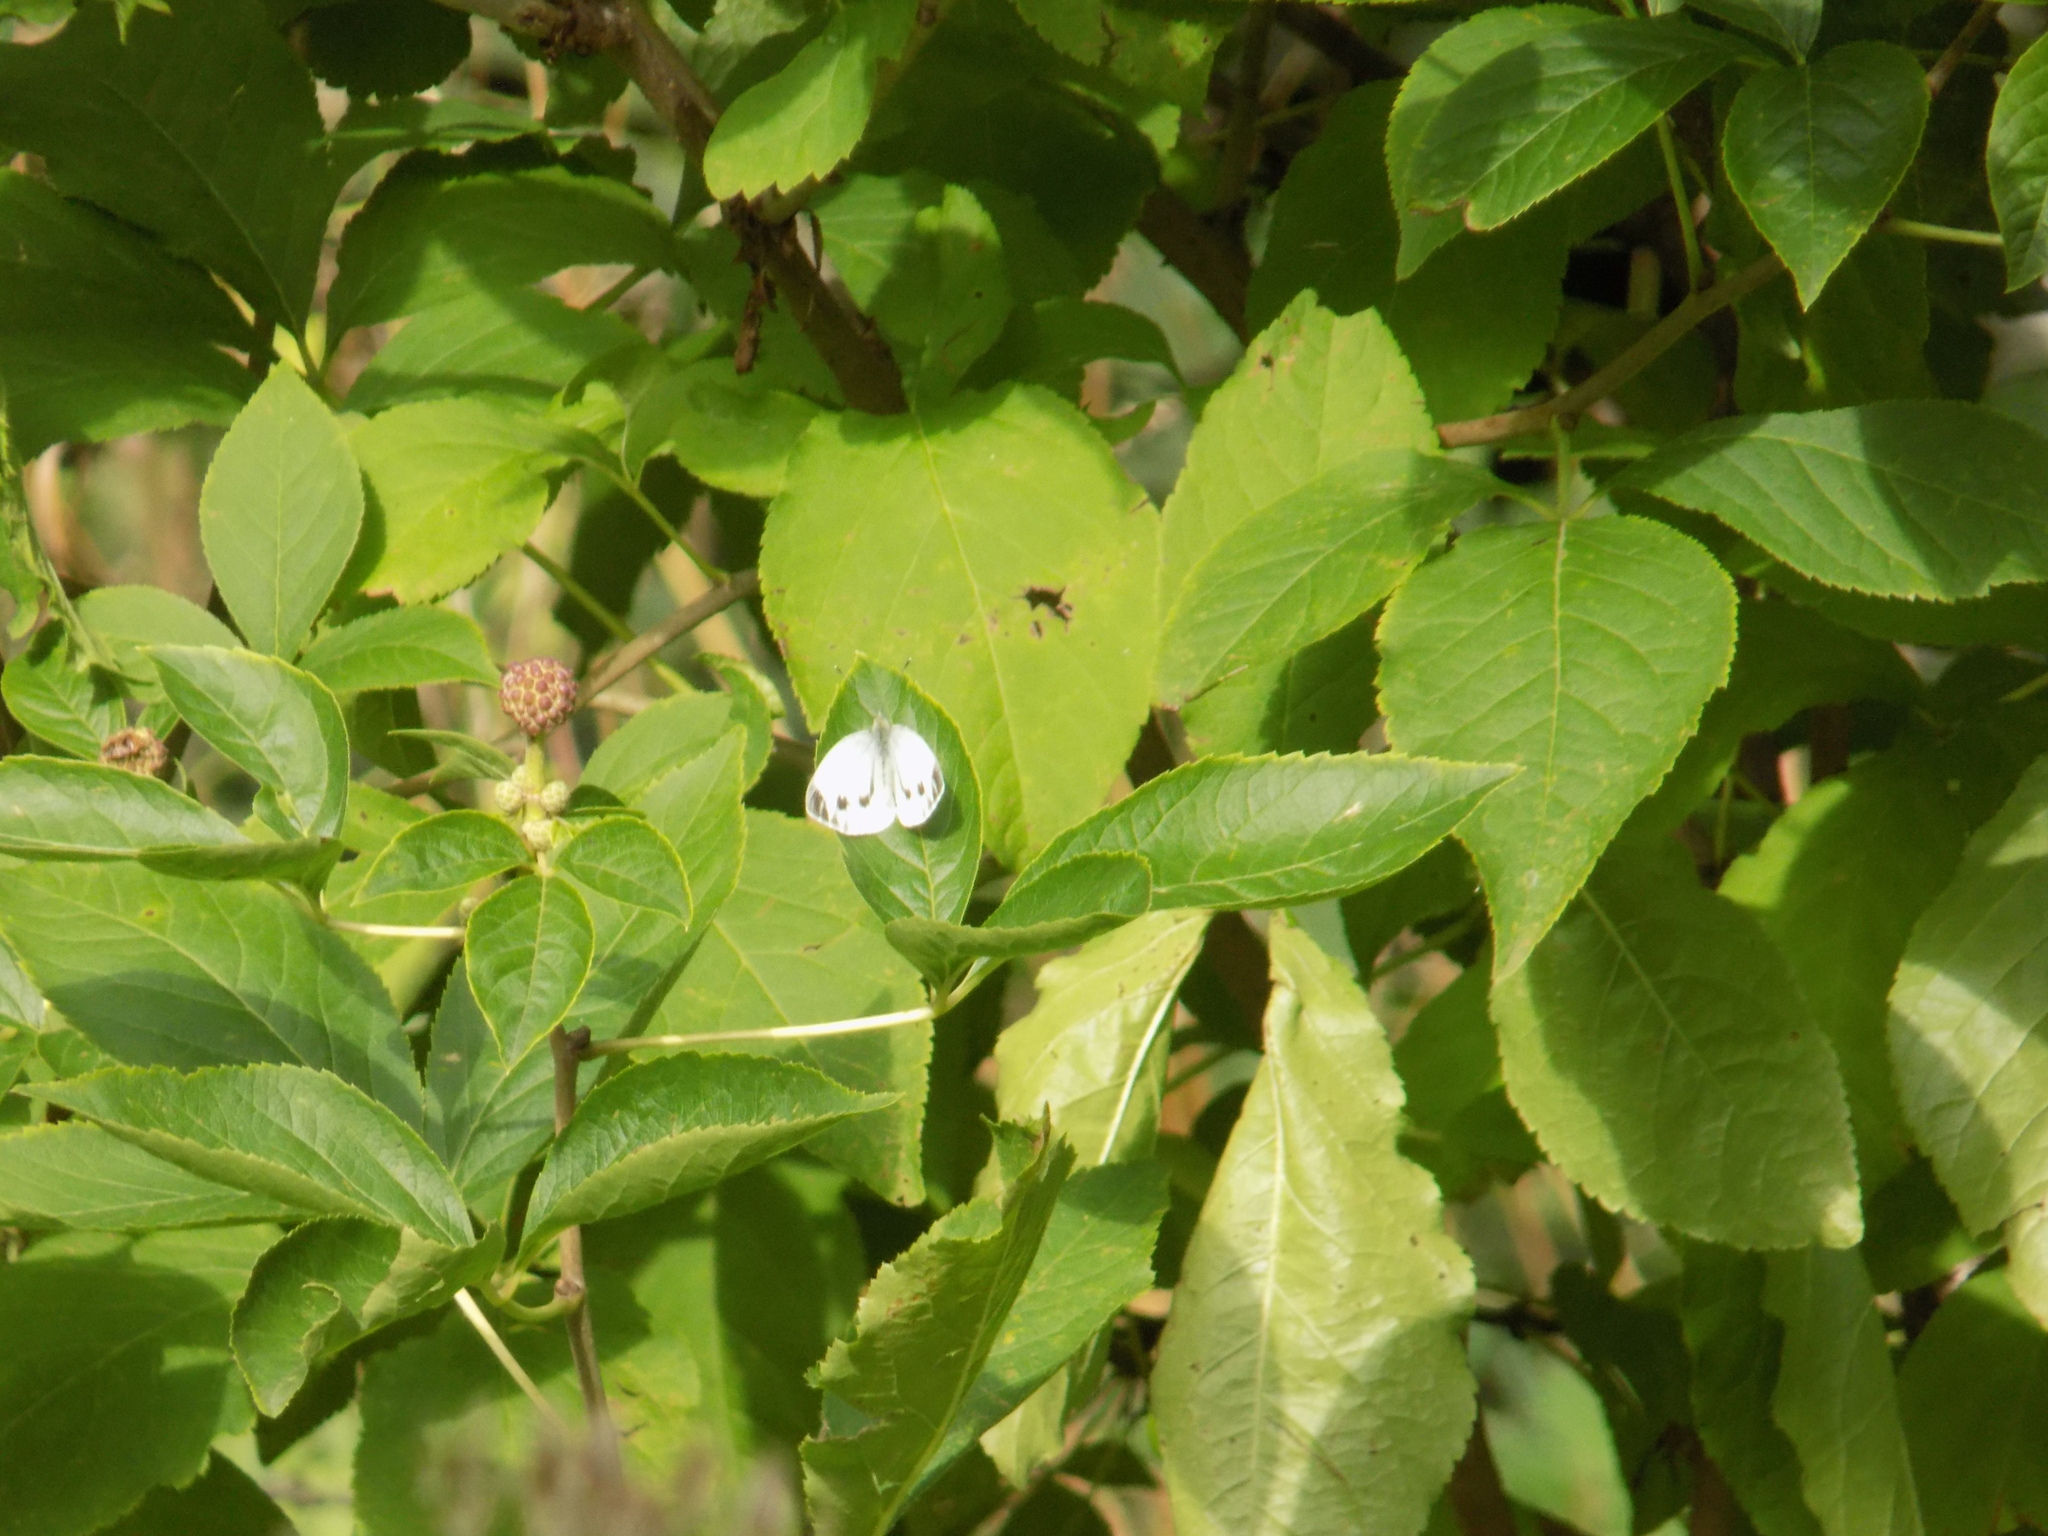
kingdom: Animalia
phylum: Arthropoda
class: Insecta
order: Lepidoptera
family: Pieridae
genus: Pieris
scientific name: Pieris napi
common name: Green-veined white
